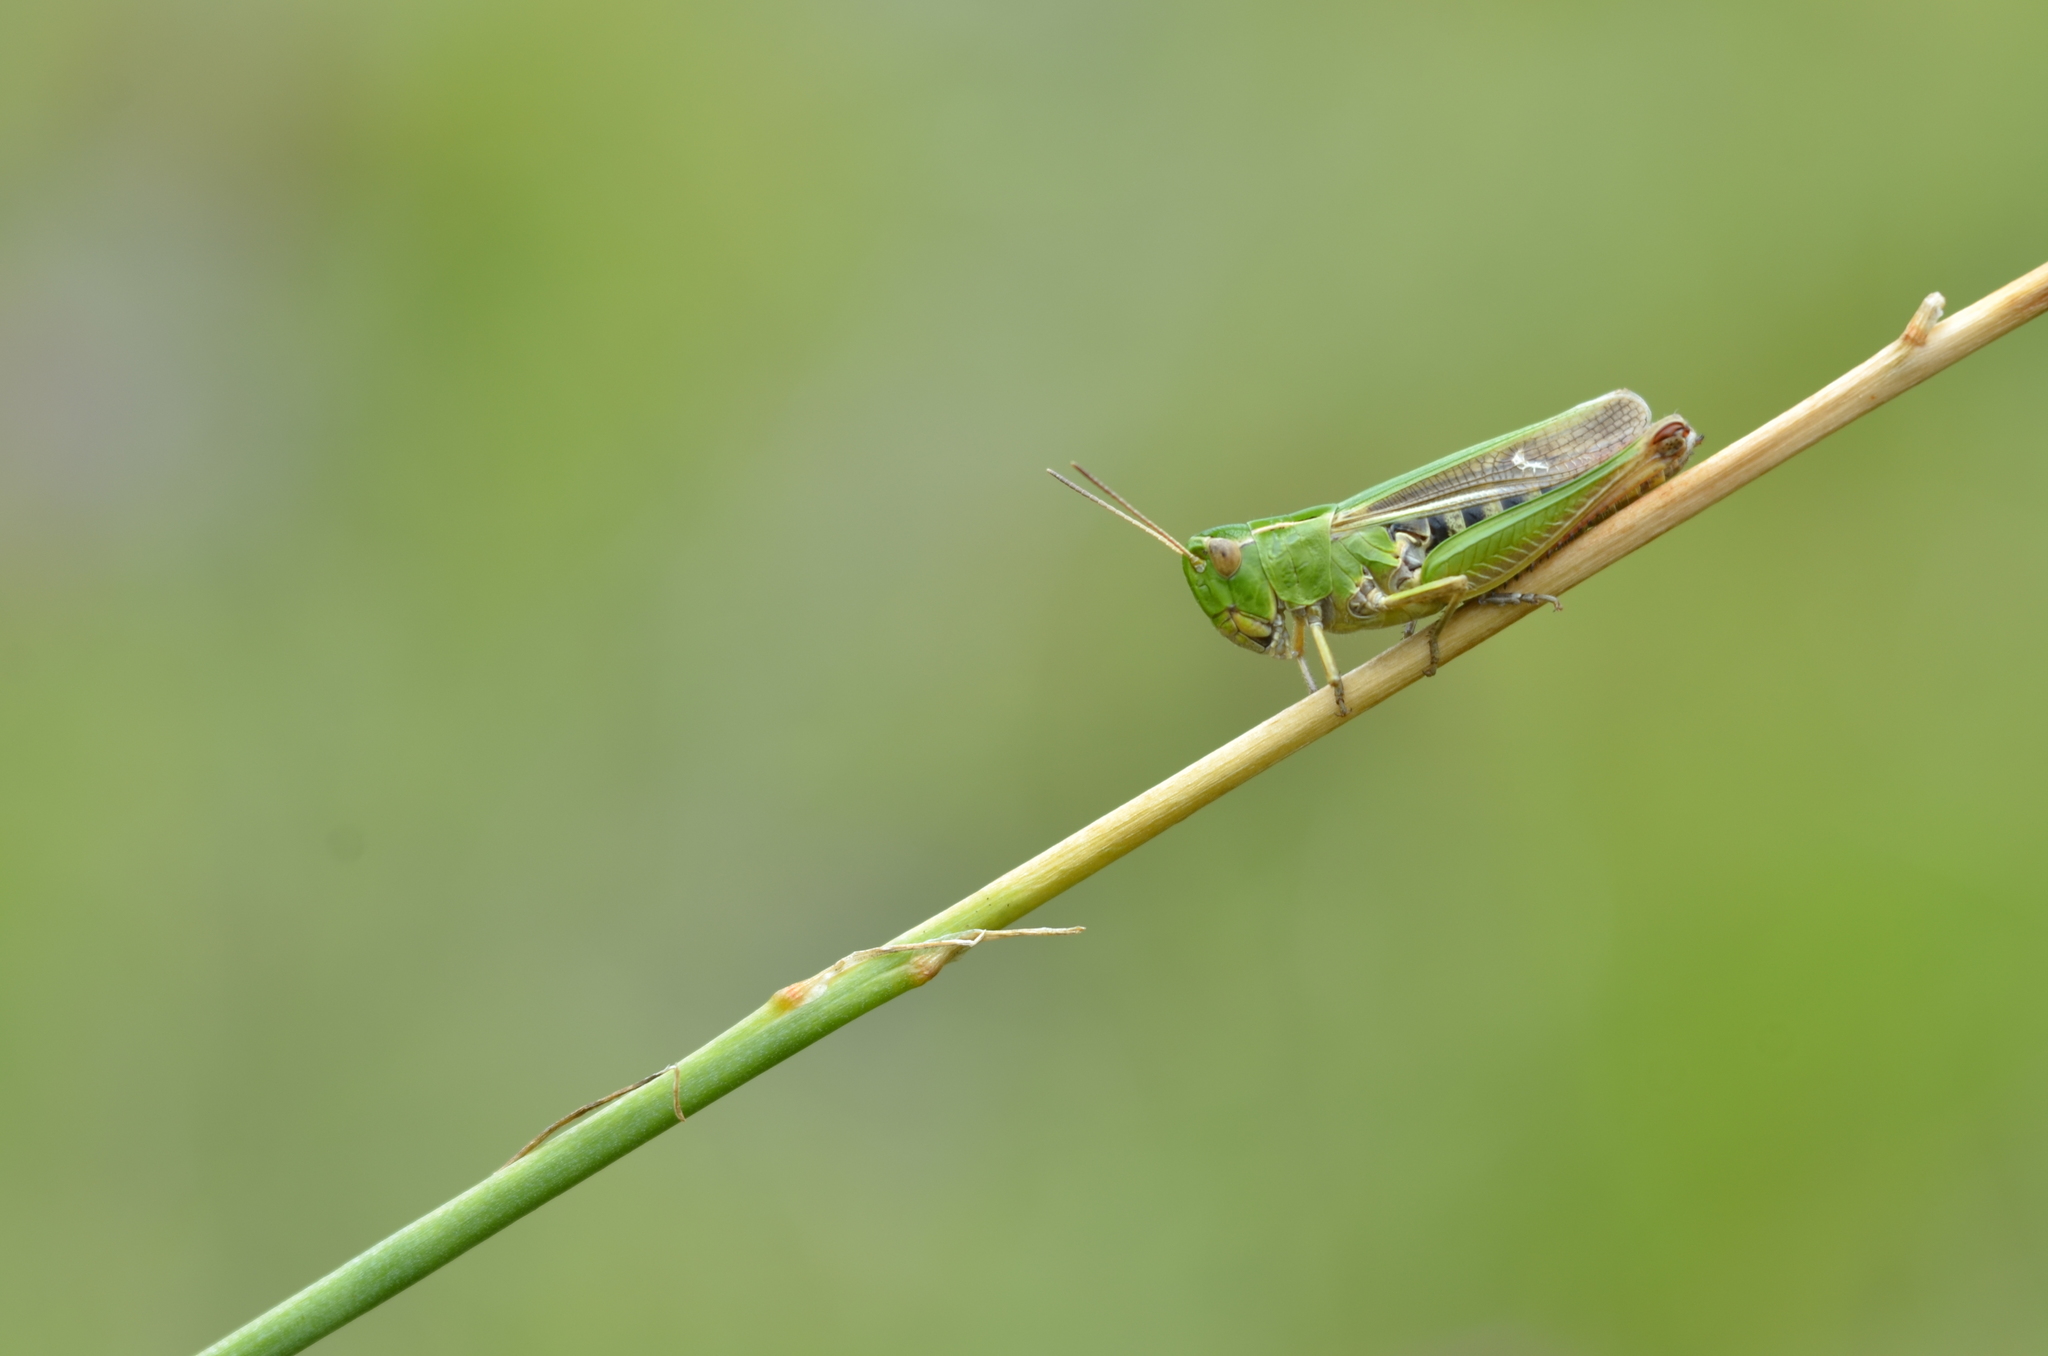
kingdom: Animalia
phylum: Arthropoda
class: Insecta
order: Orthoptera
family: Acrididae
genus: Stenobothrus
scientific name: Stenobothrus lineatus
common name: Stripe-winged grasshopper
